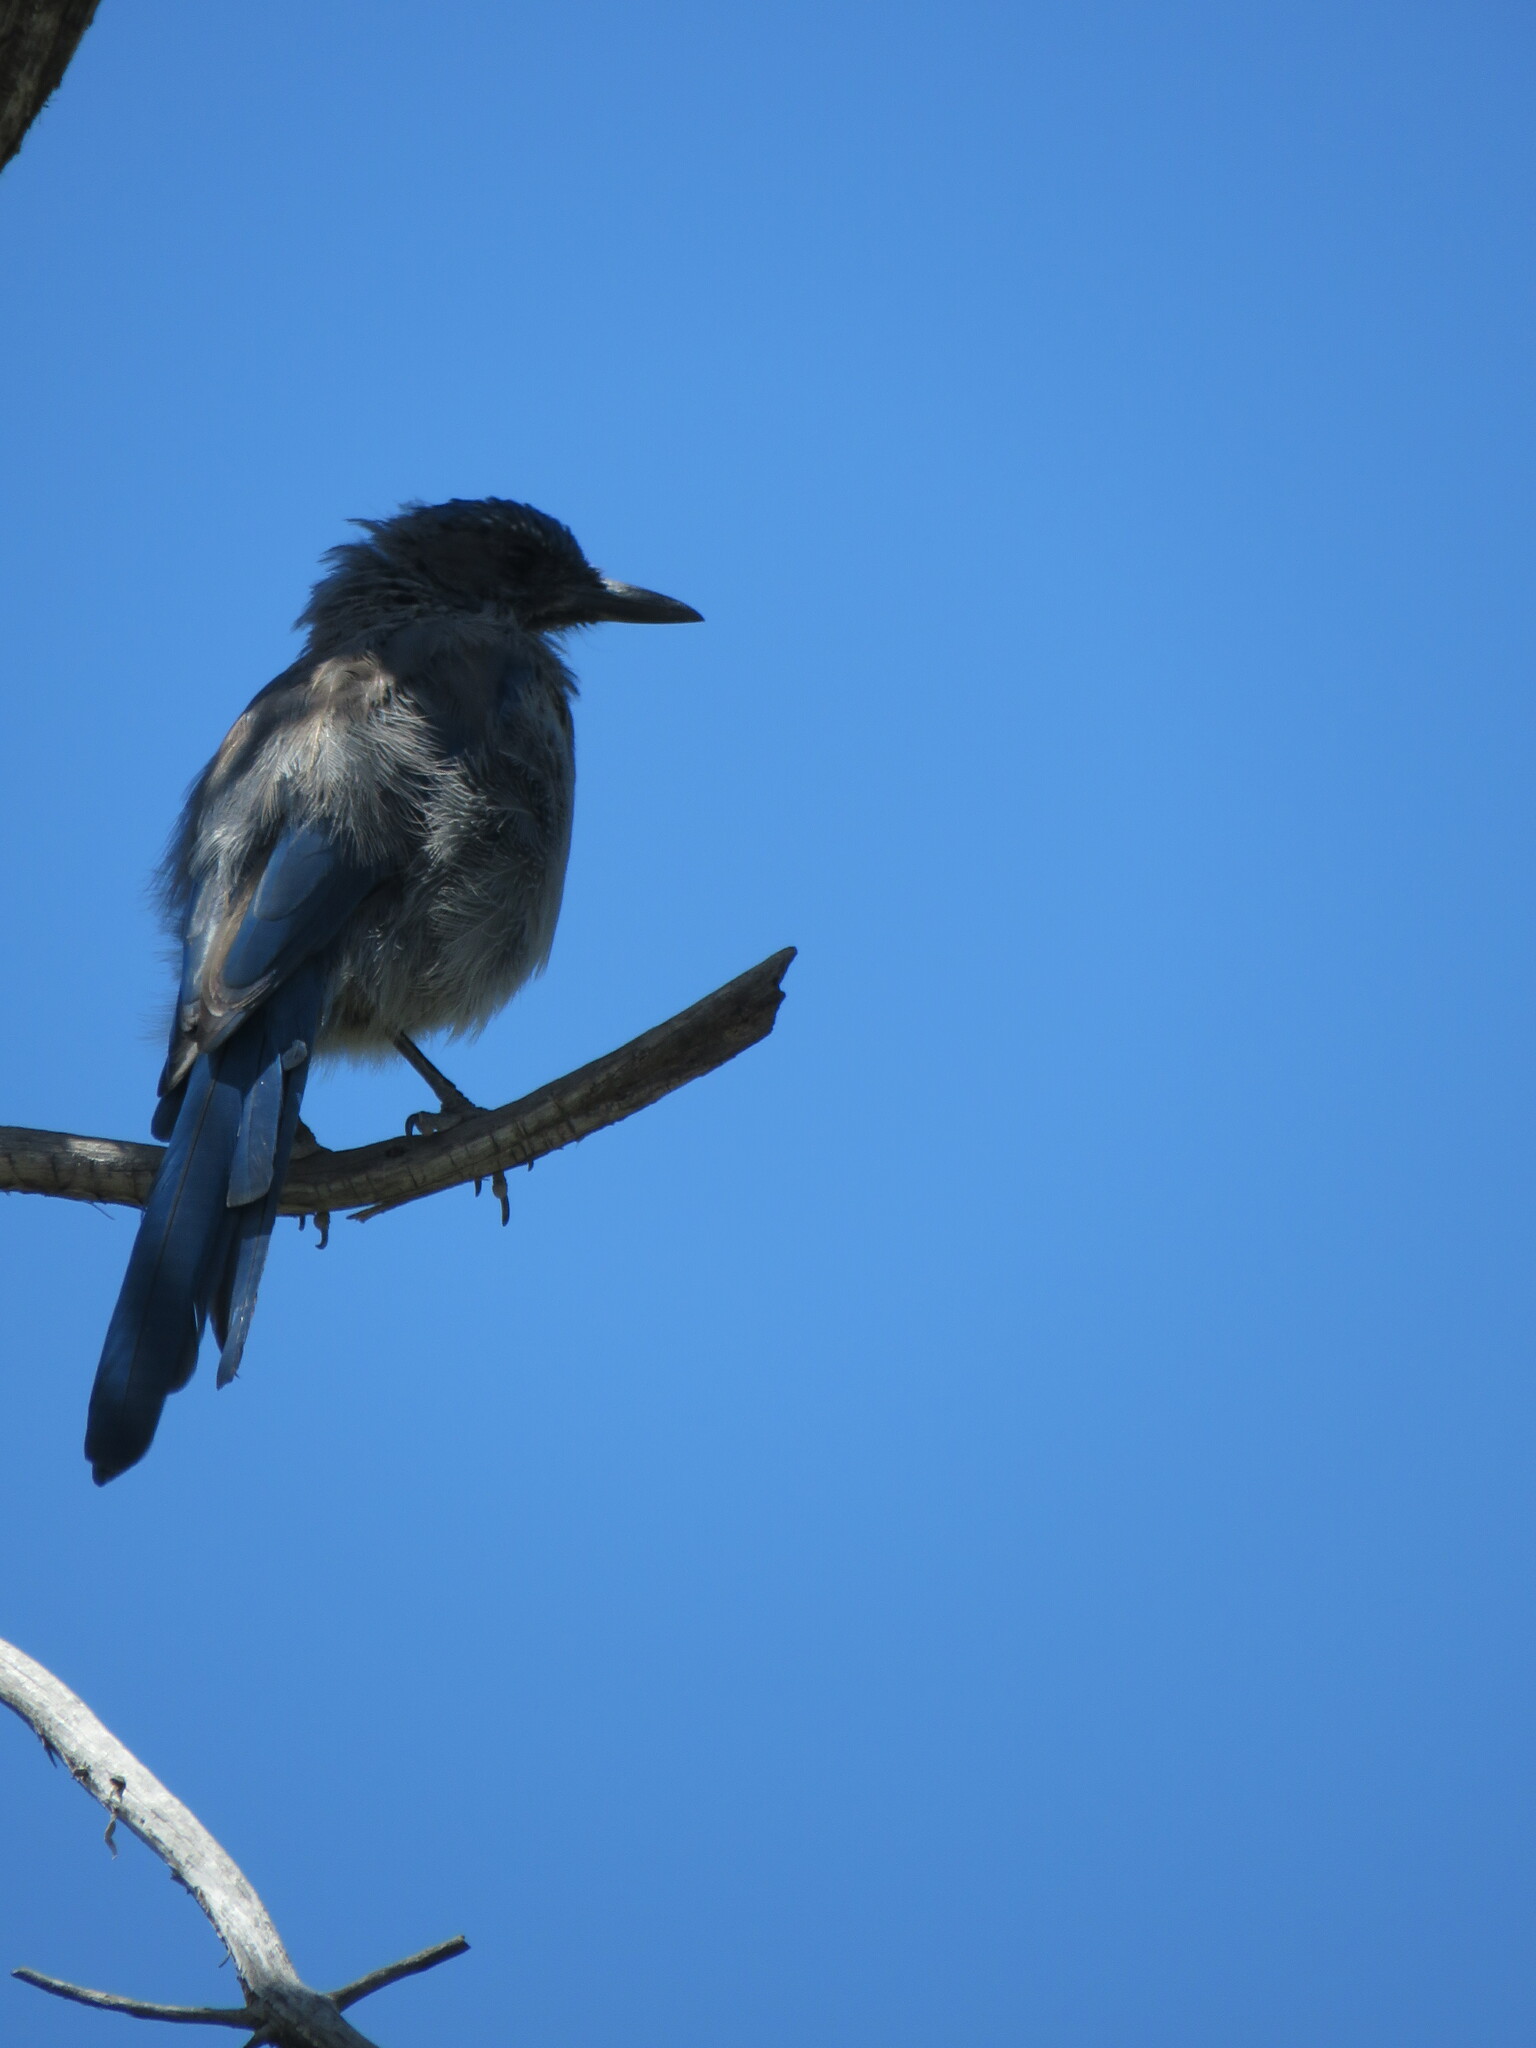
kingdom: Animalia
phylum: Chordata
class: Aves
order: Passeriformes
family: Corvidae
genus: Aphelocoma
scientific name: Aphelocoma woodhouseii
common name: Woodhouse's scrub-jay
